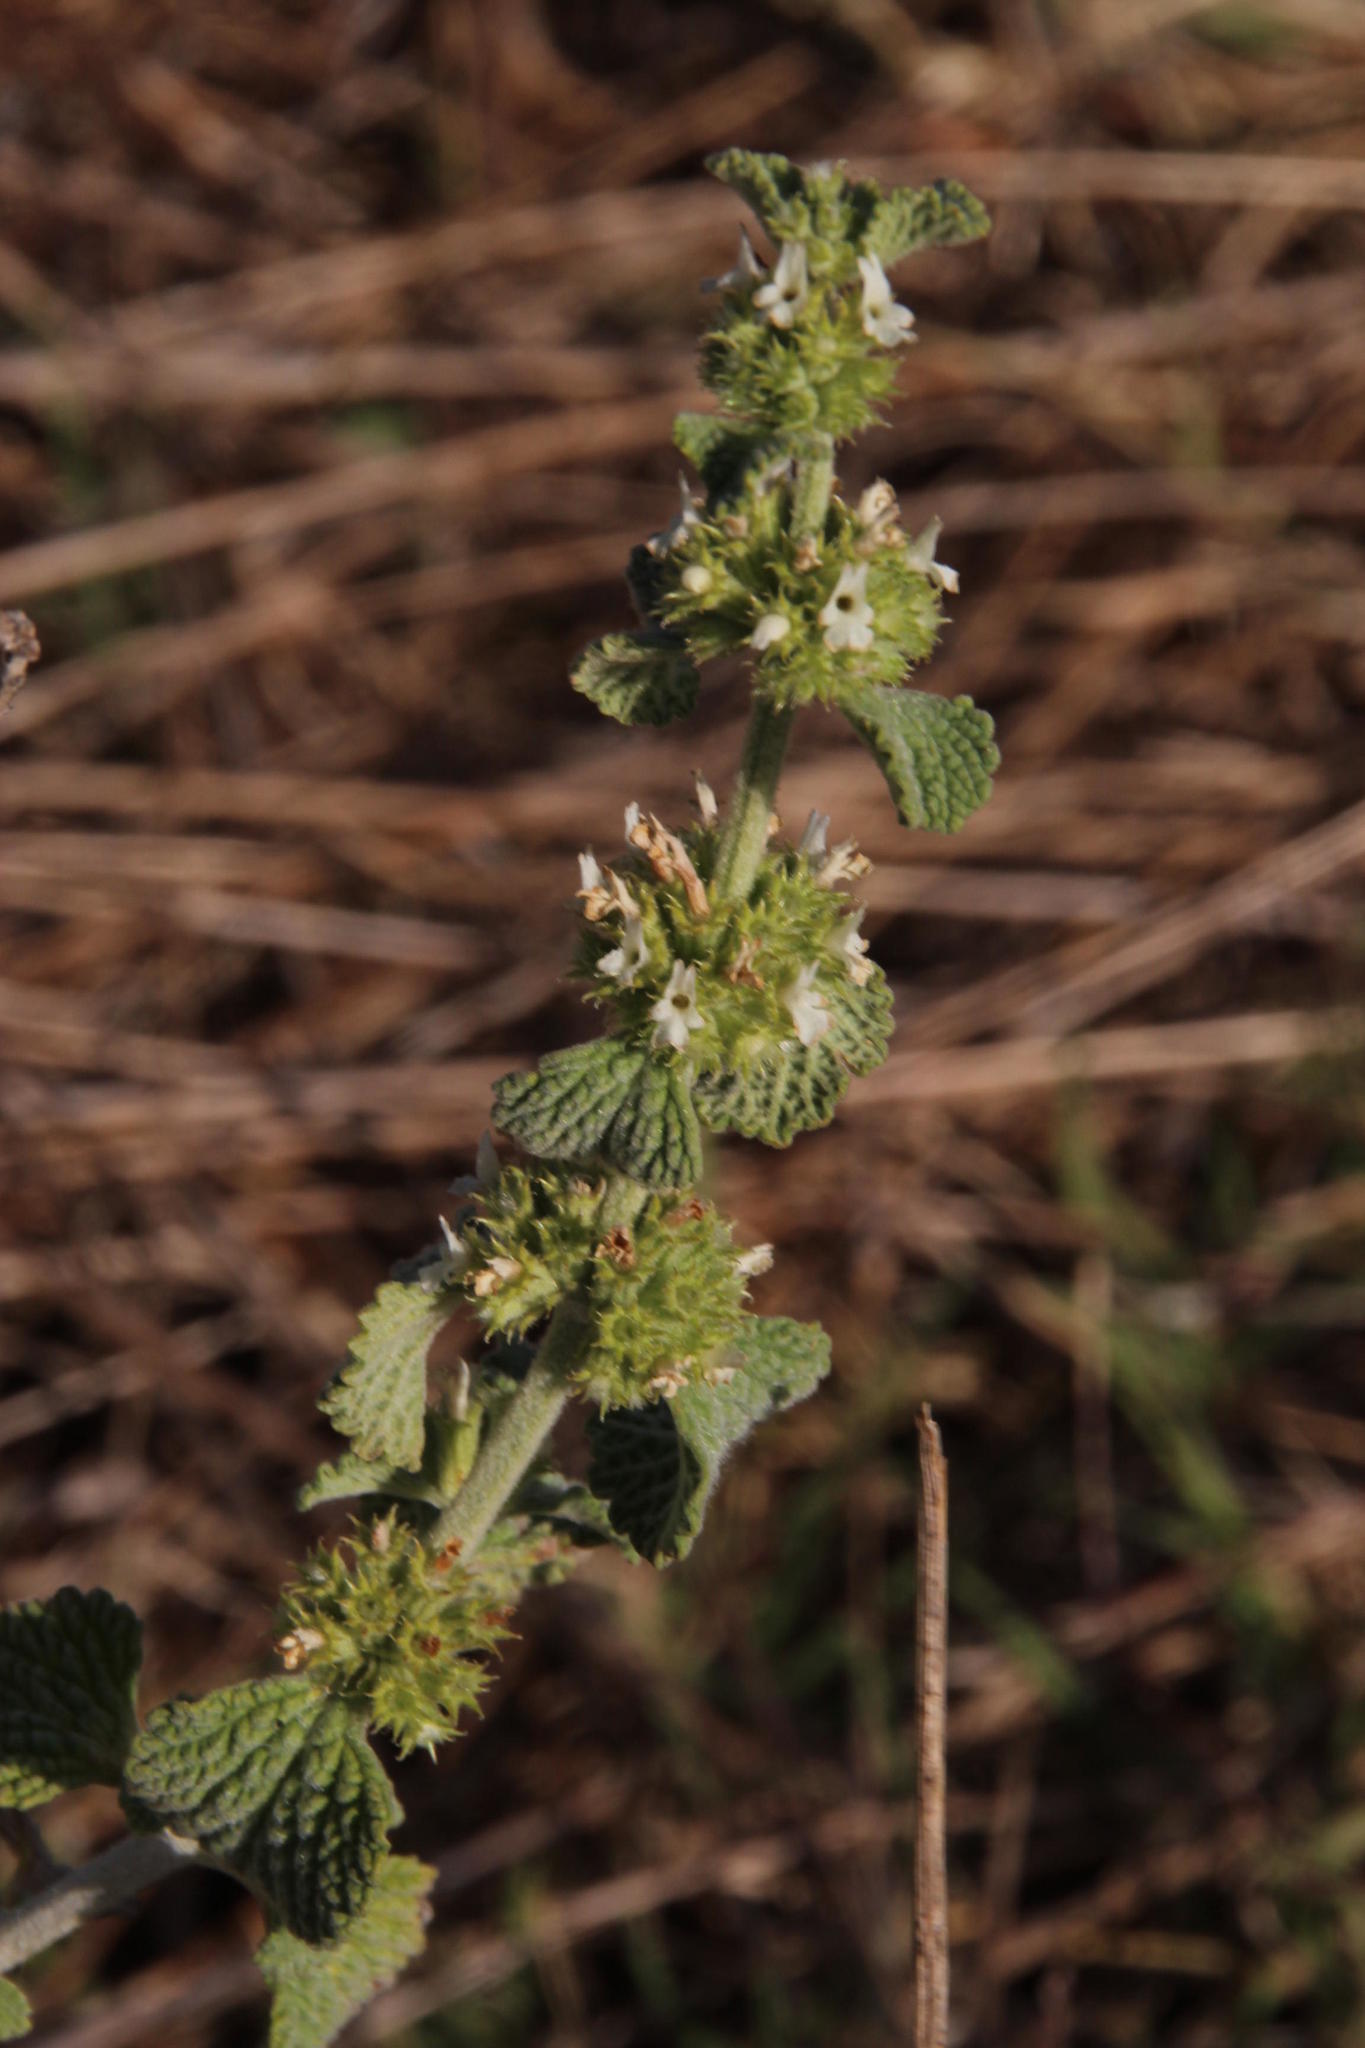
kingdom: Plantae
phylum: Tracheophyta
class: Magnoliopsida
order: Lamiales
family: Lamiaceae
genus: Pseudodictamnus
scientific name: Pseudodictamnus africanus
